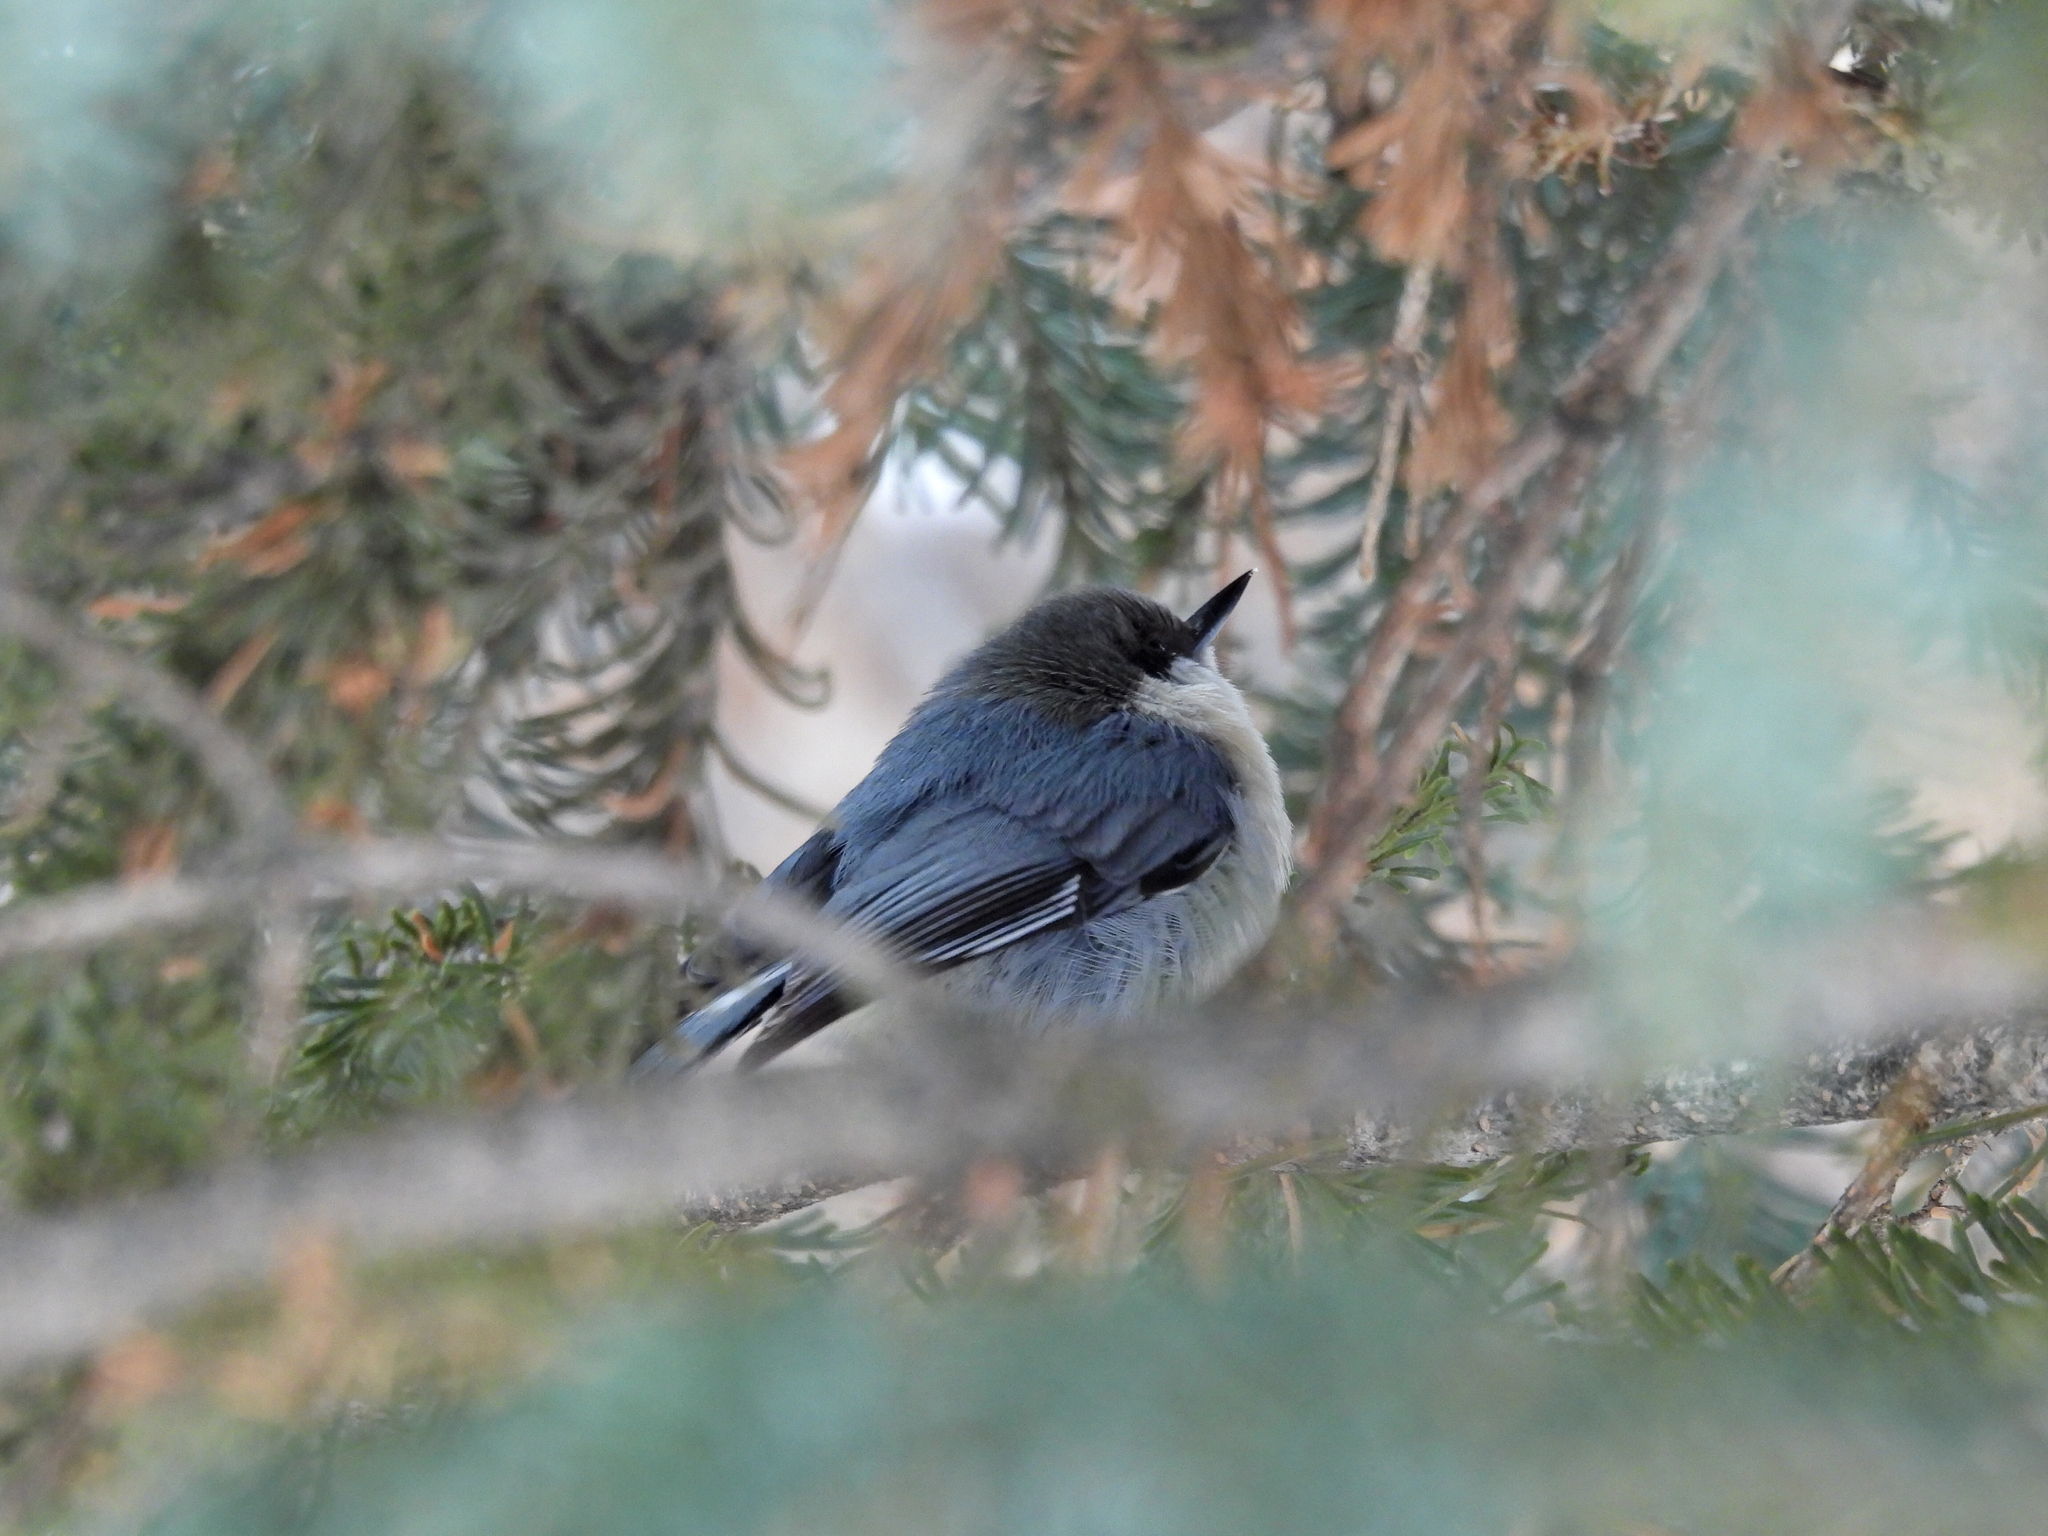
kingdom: Animalia
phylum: Chordata
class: Aves
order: Passeriformes
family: Sittidae
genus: Sitta
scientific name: Sitta pygmaea
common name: Pygmy nuthatch
